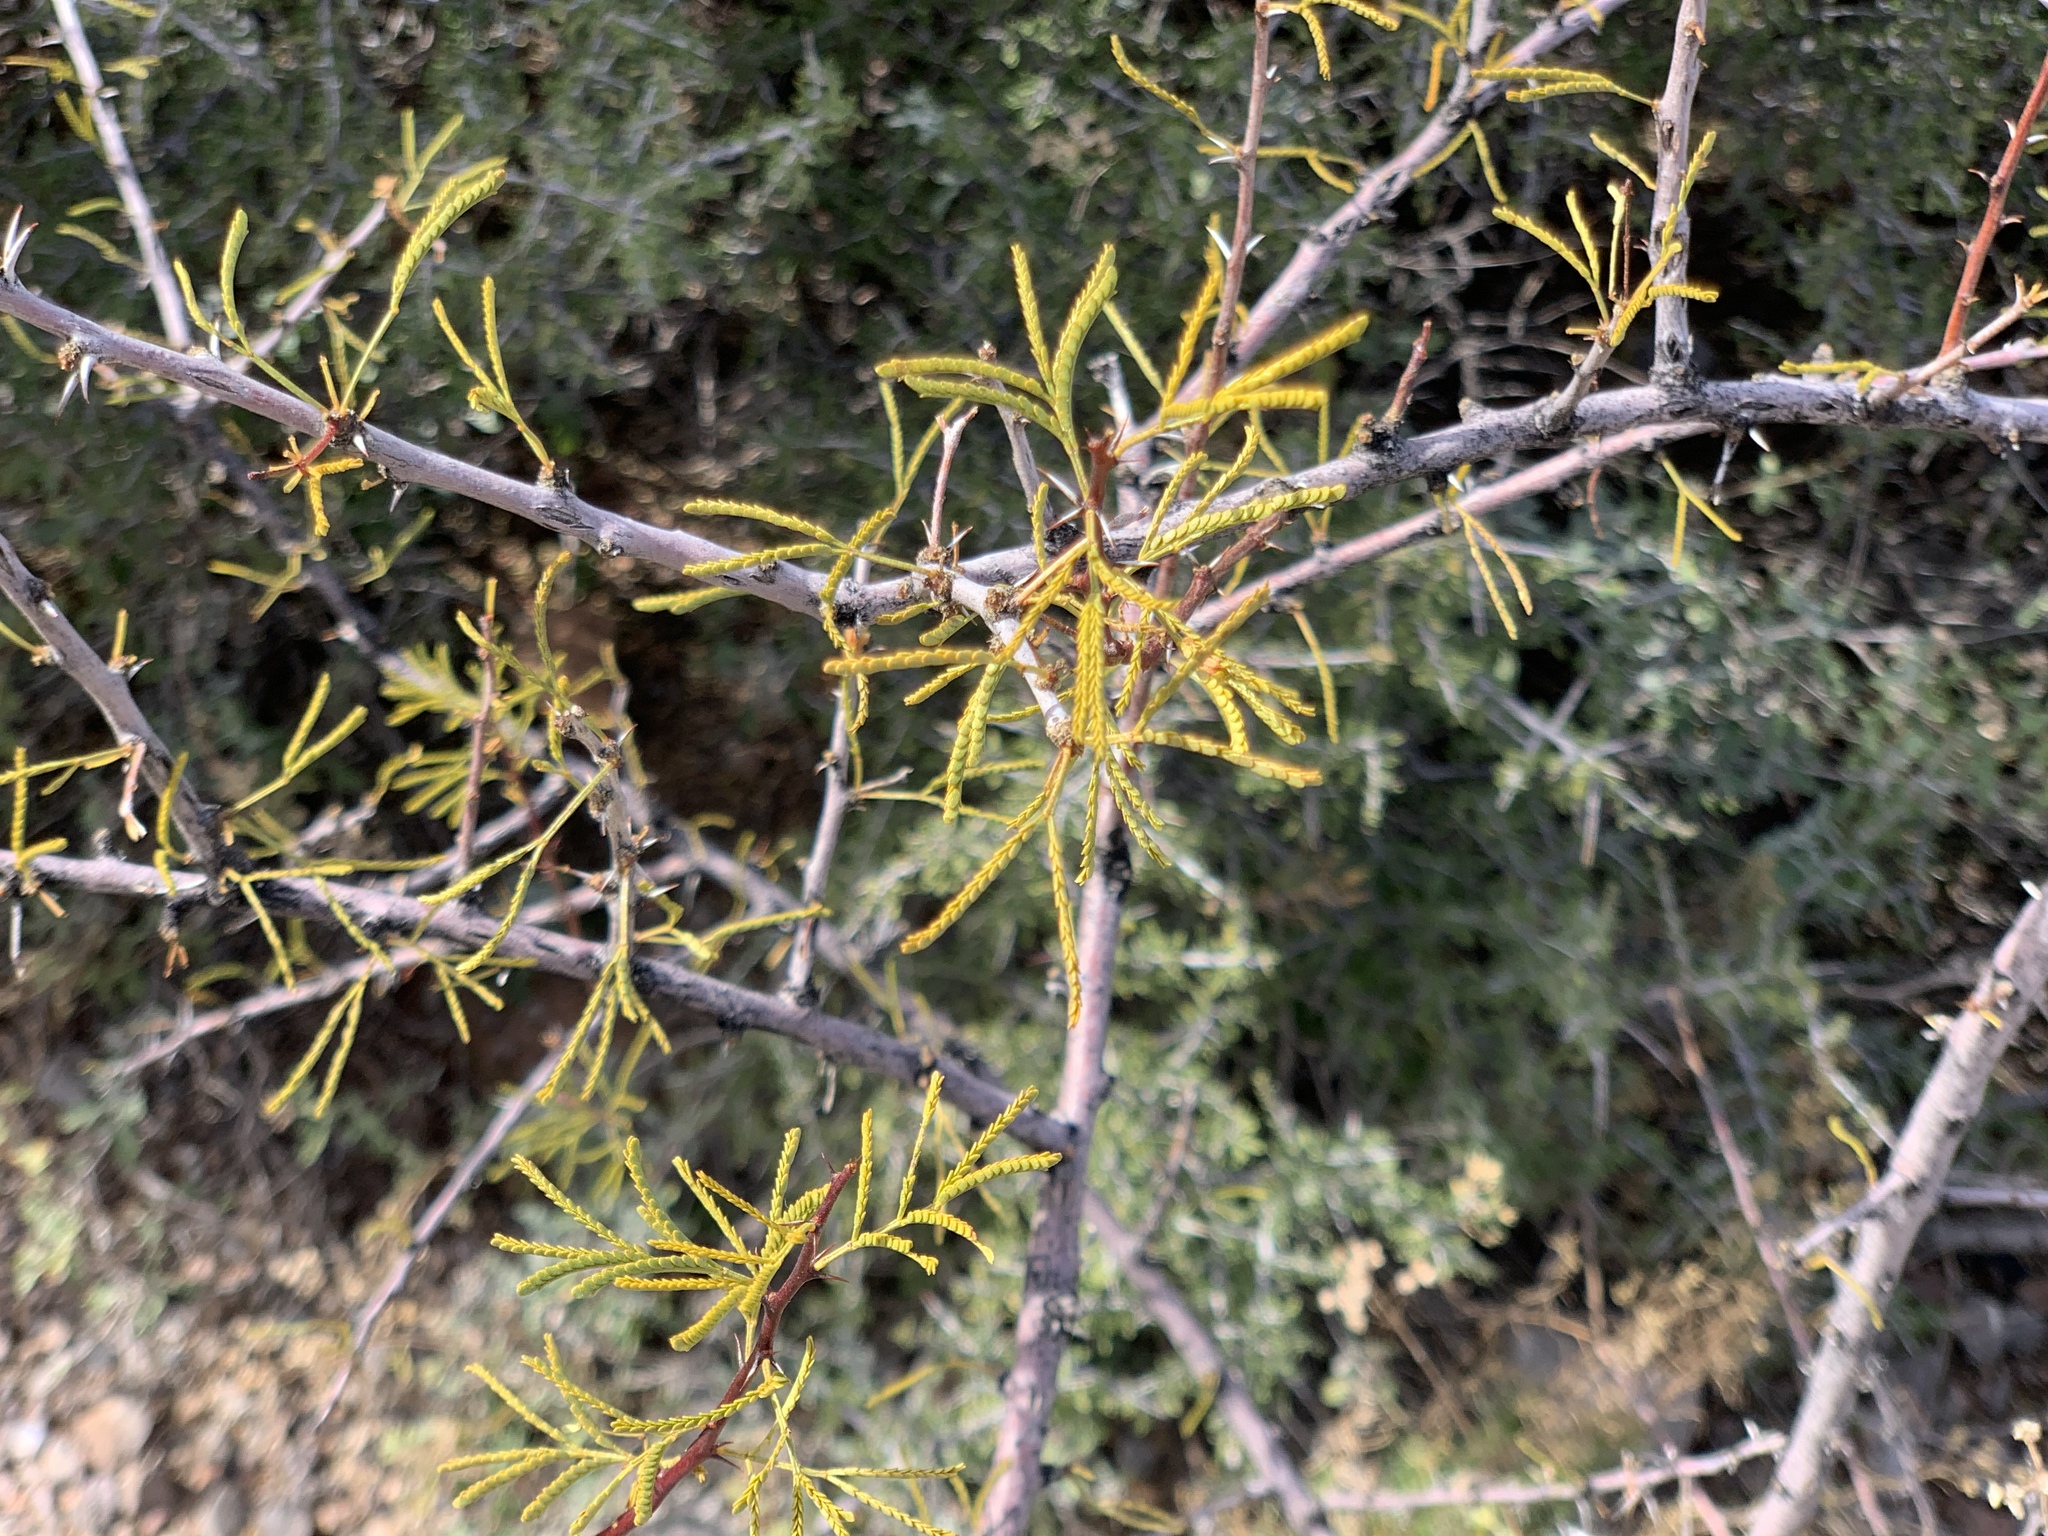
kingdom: Plantae
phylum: Tracheophyta
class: Magnoliopsida
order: Fabales
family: Fabaceae
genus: Vachellia
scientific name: Vachellia constricta
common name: Mescat acacia
